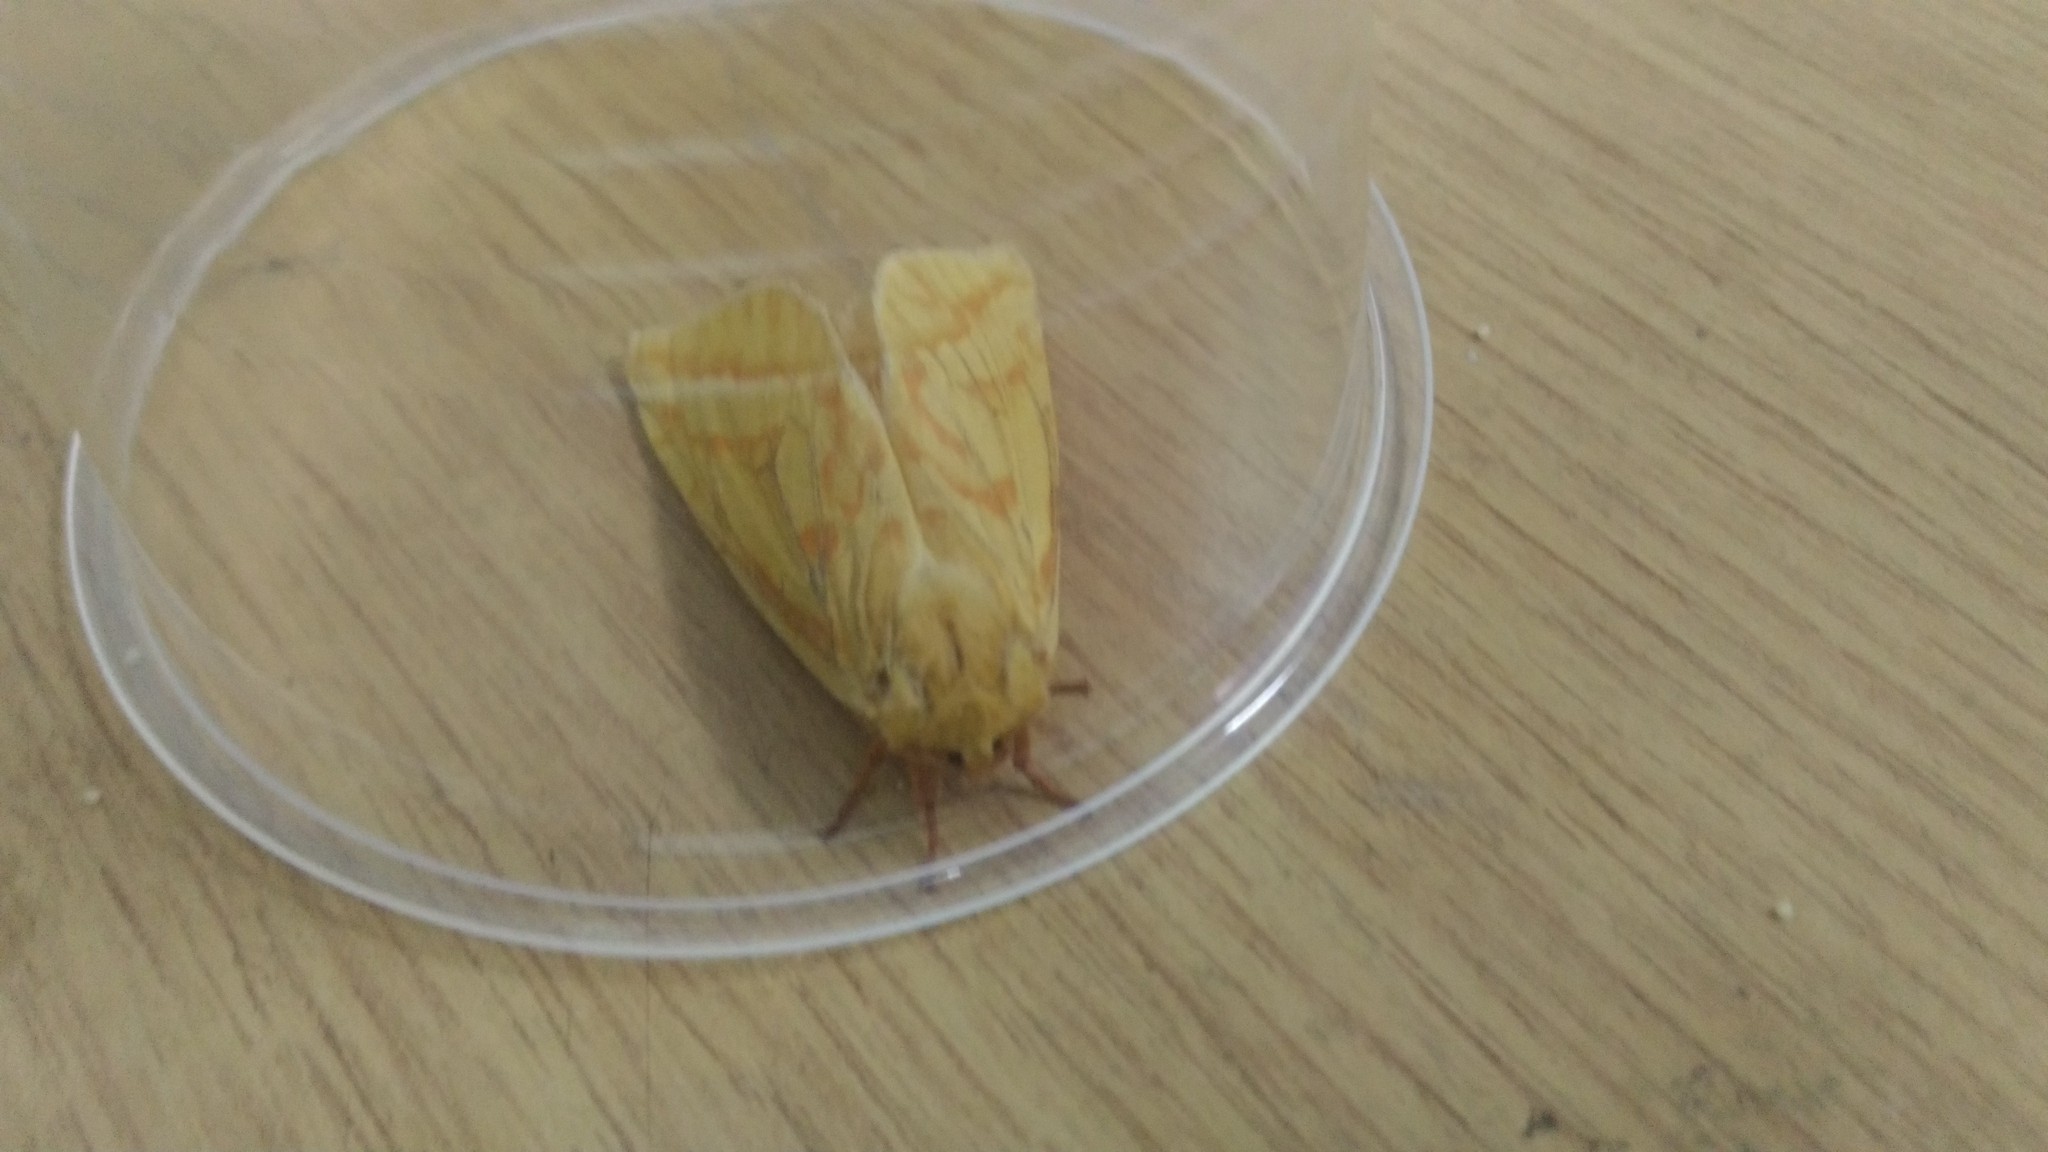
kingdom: Animalia
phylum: Arthropoda
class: Insecta
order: Lepidoptera
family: Hepialidae
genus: Hepialus
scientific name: Hepialus humuli
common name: Ghost moth
